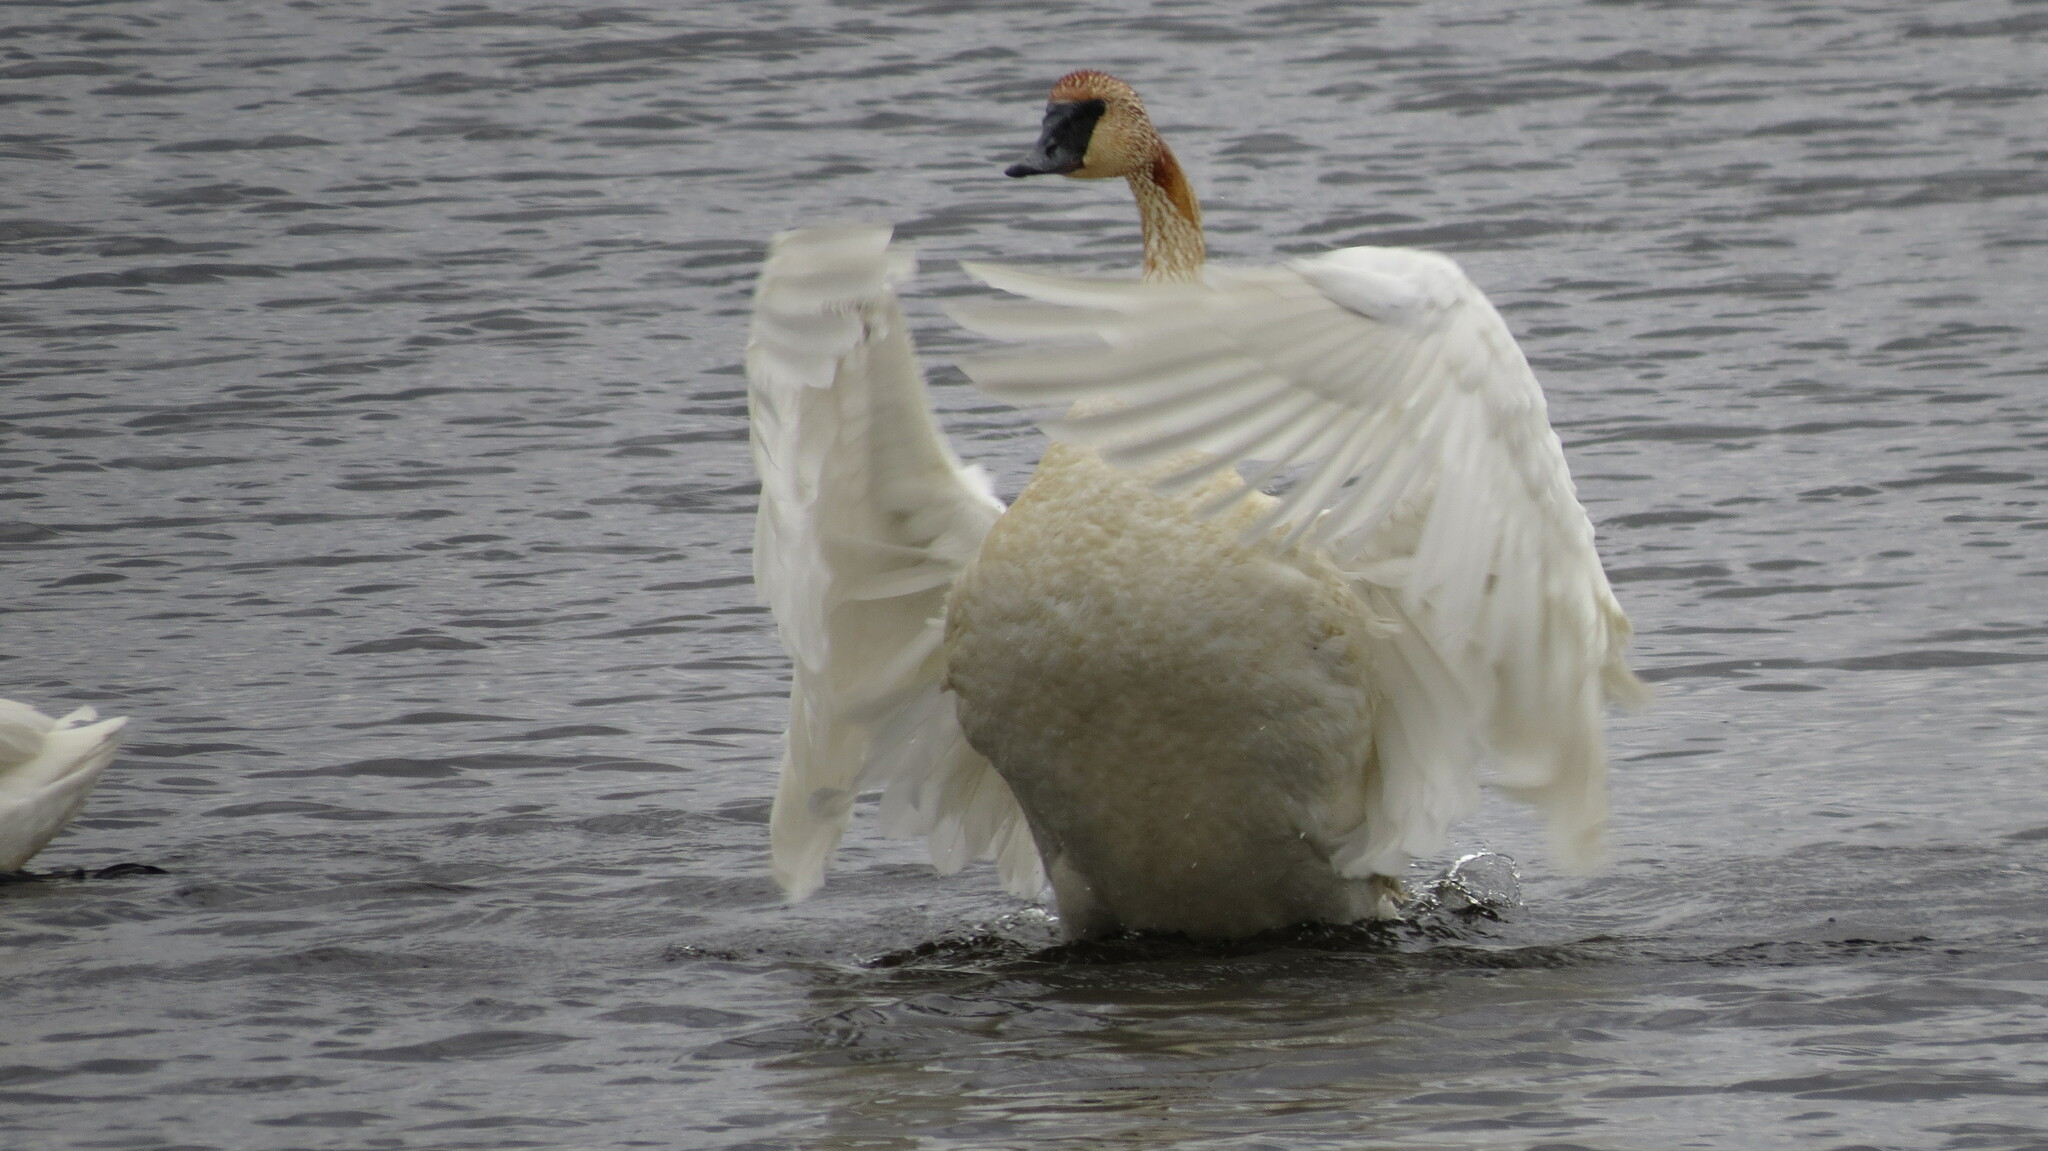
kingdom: Animalia
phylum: Chordata
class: Aves
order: Anseriformes
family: Anatidae
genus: Cygnus
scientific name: Cygnus buccinator
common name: Trumpeter swan
